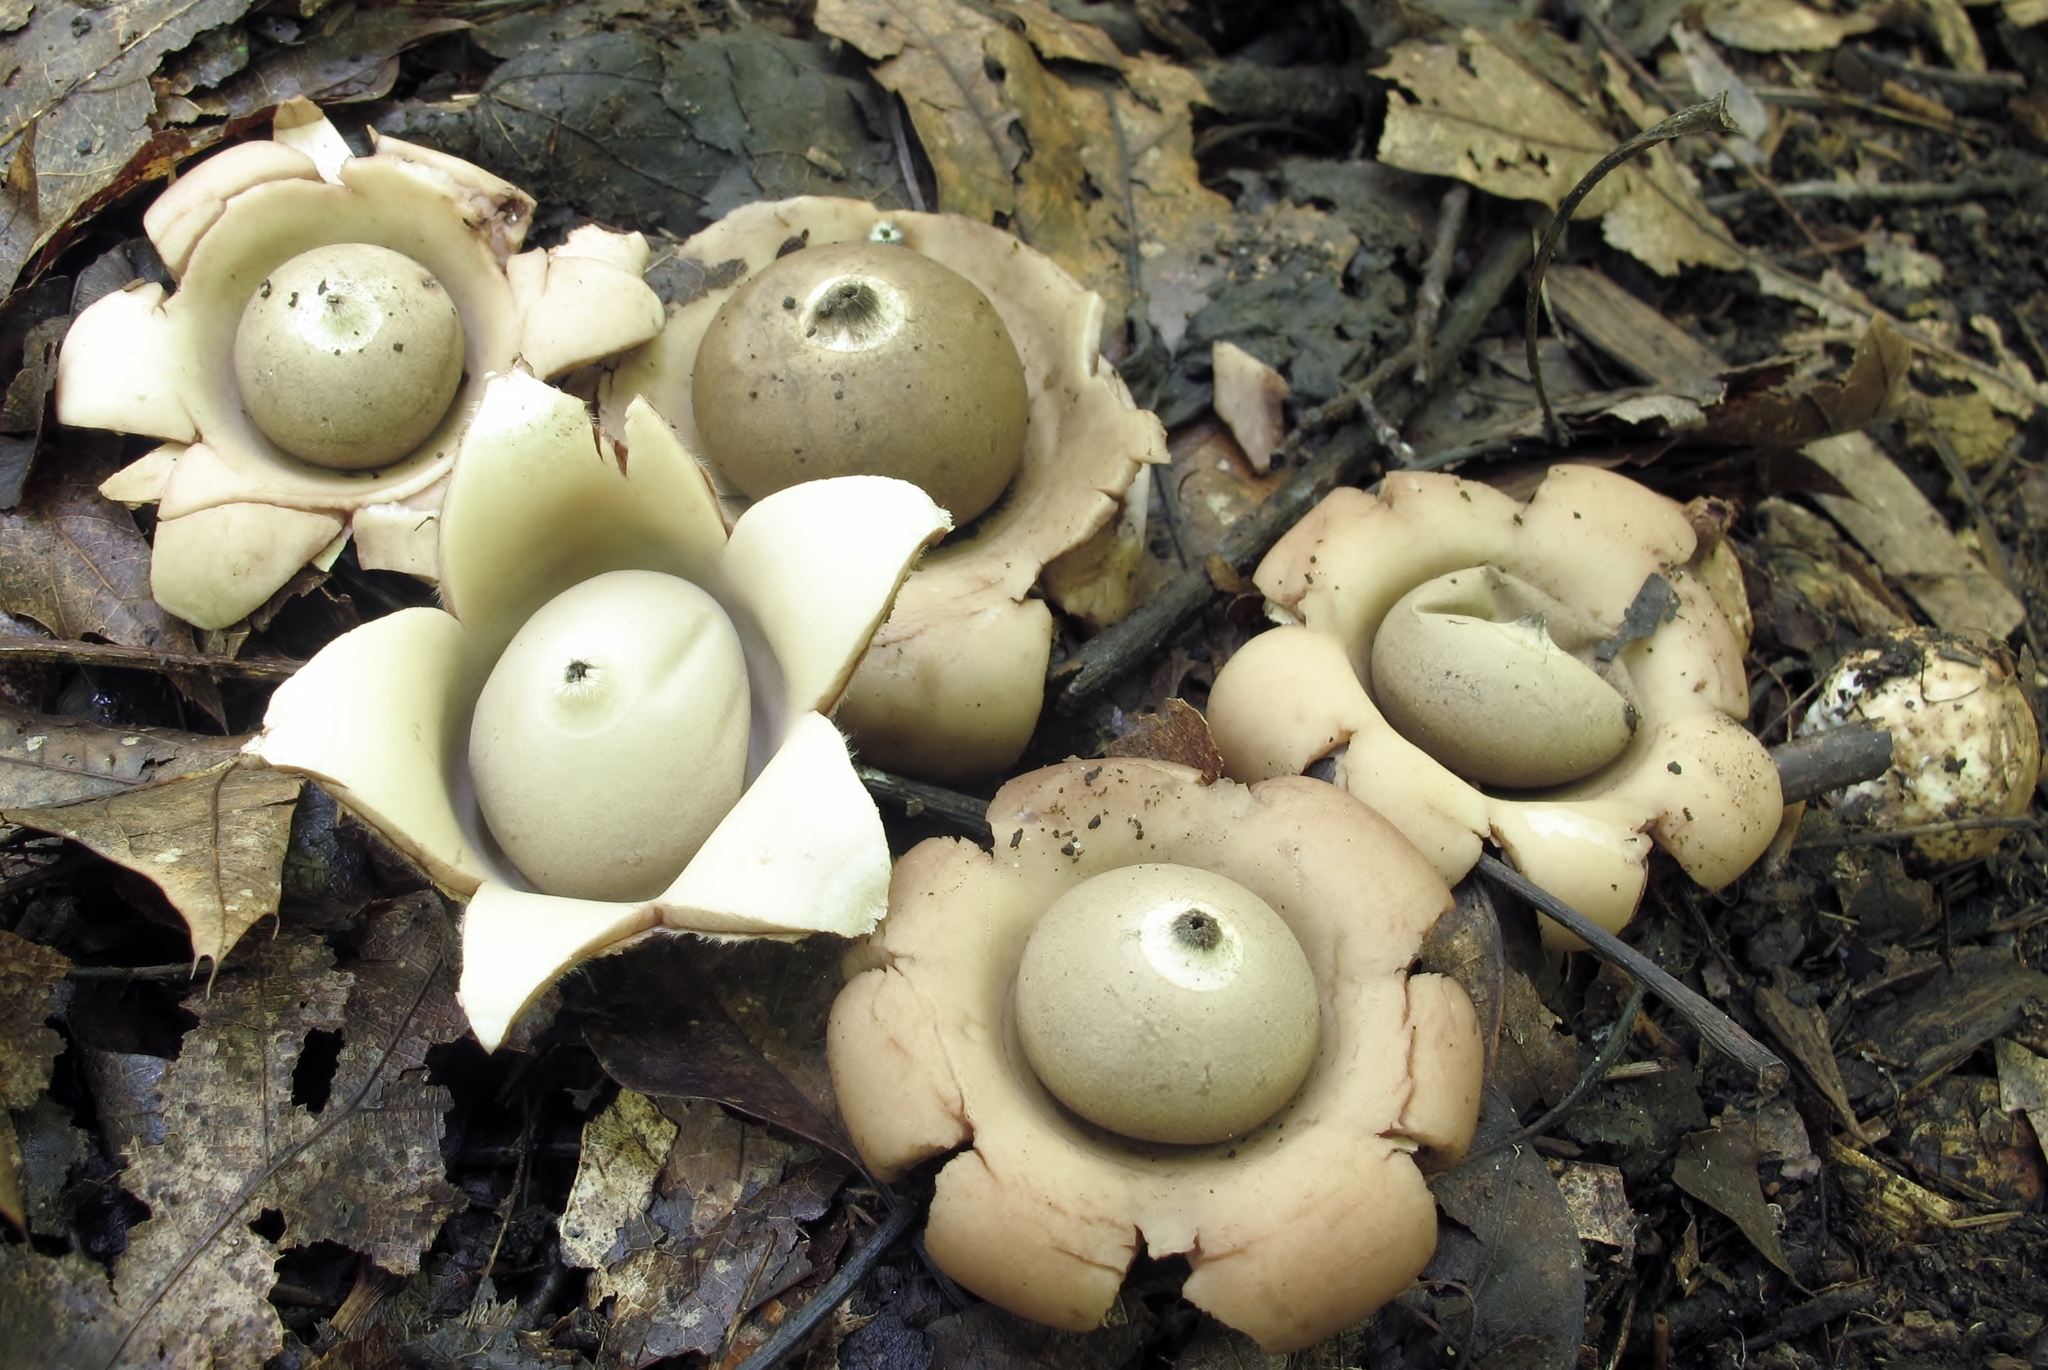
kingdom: Fungi
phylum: Basidiomycota
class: Agaricomycetes
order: Geastrales
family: Geastraceae
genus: Geastrum
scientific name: Geastrum saccatum
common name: Rounded earthstar
